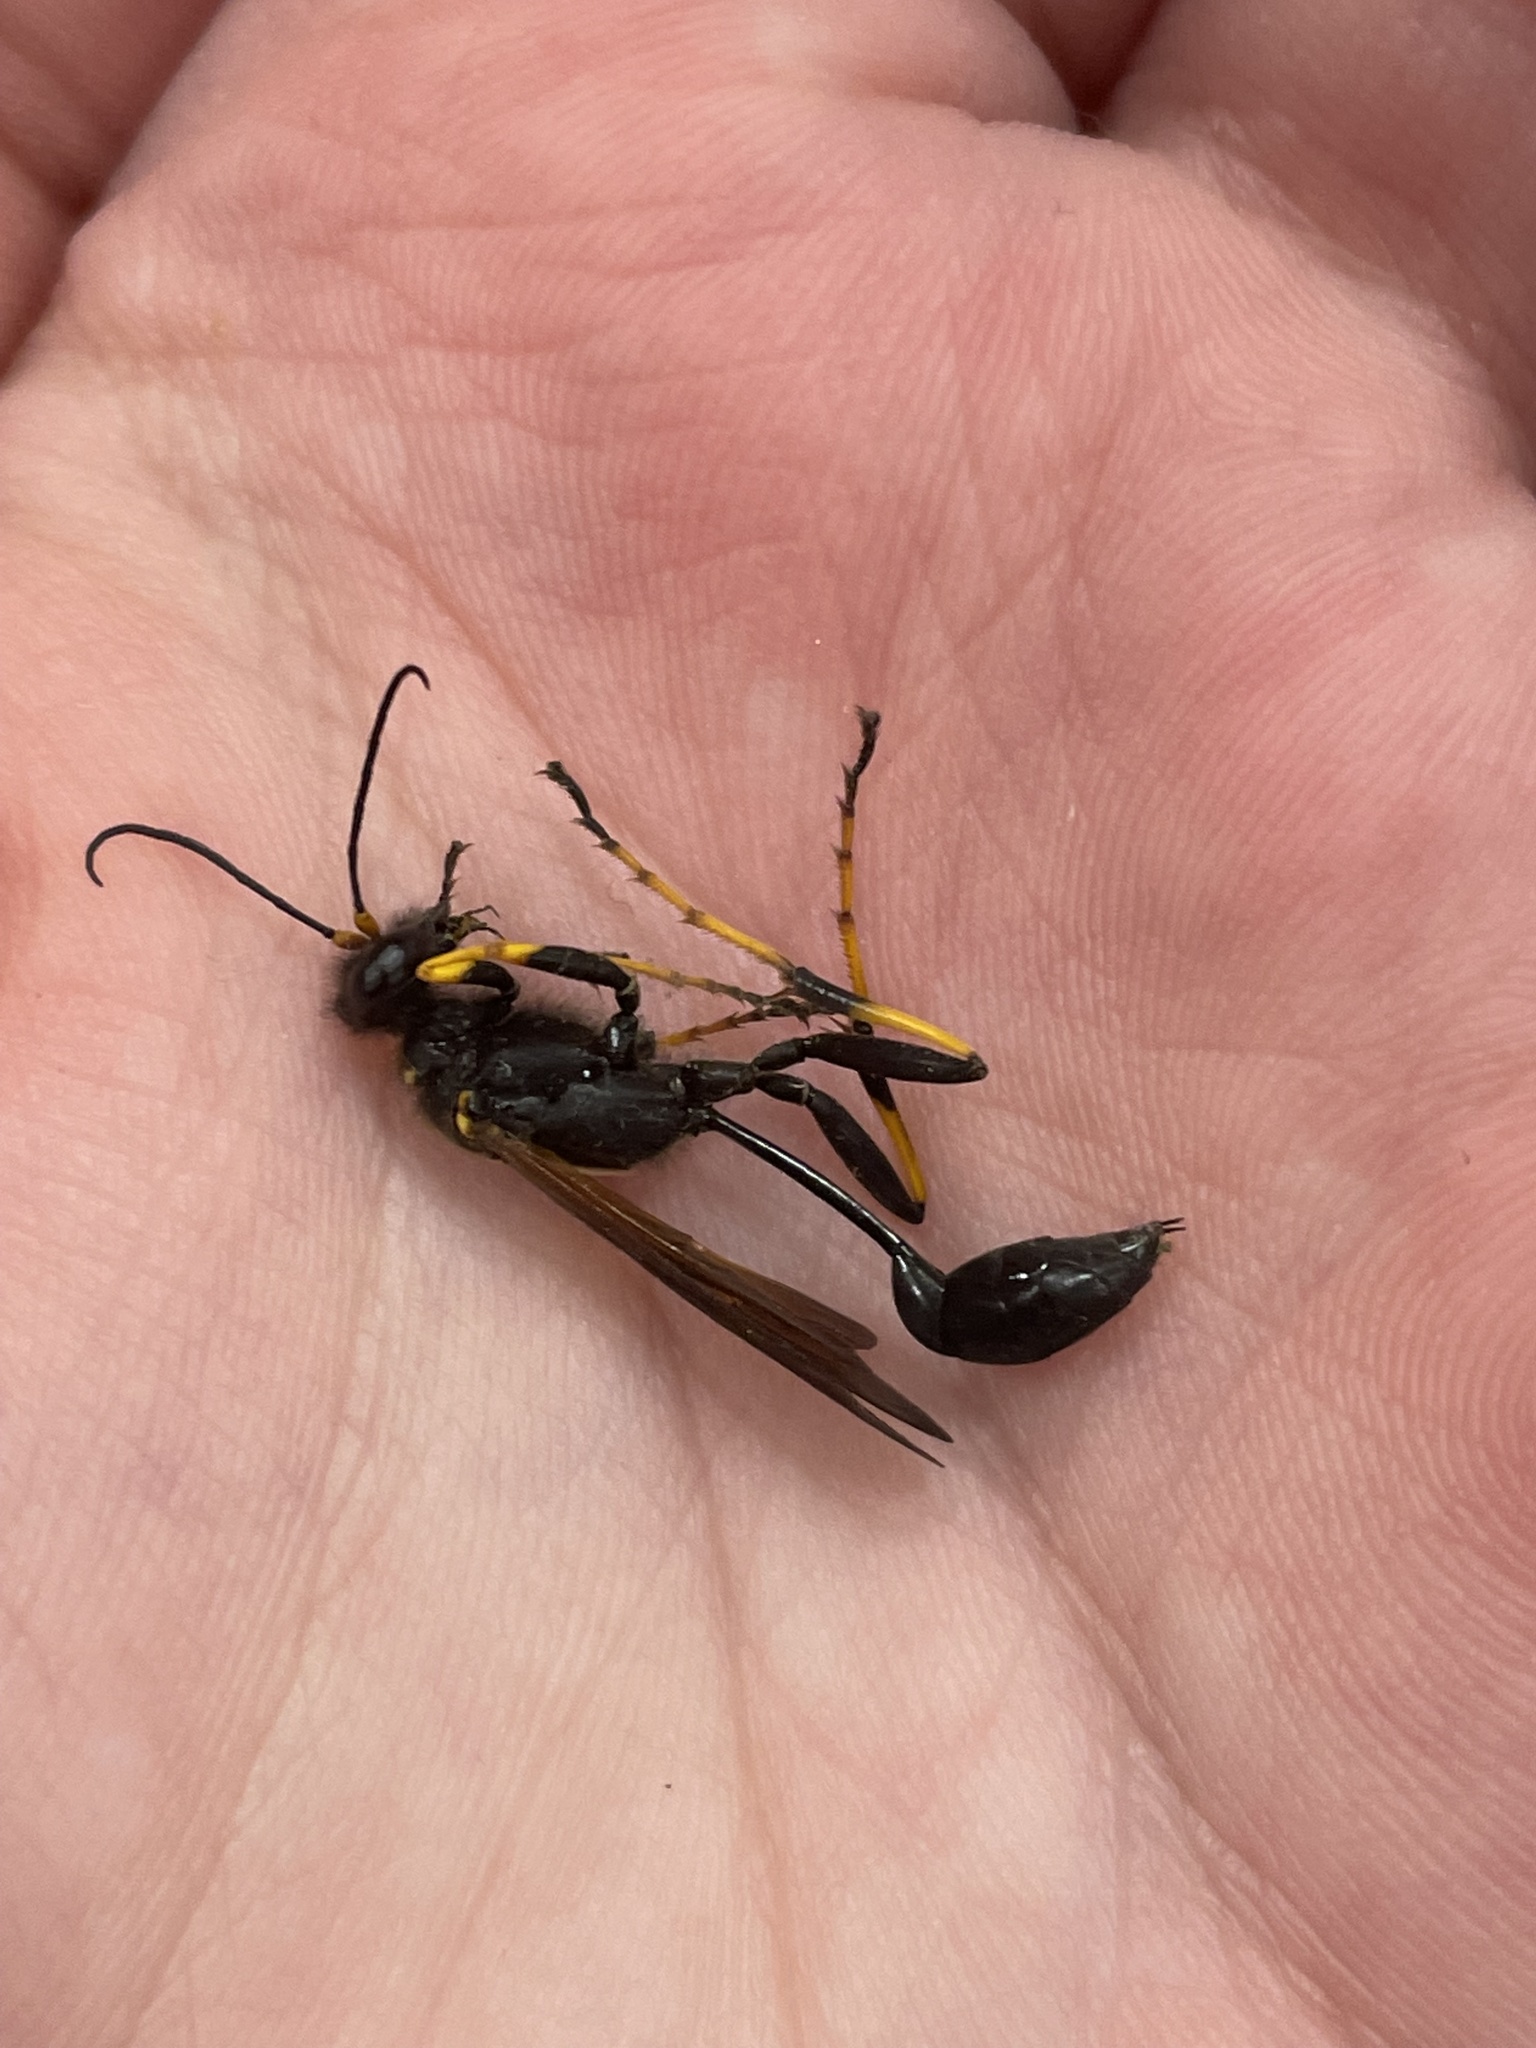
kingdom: Animalia
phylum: Arthropoda
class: Insecta
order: Hymenoptera
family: Sphecidae
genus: Sceliphron
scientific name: Sceliphron caementarium
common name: Mud dauber
